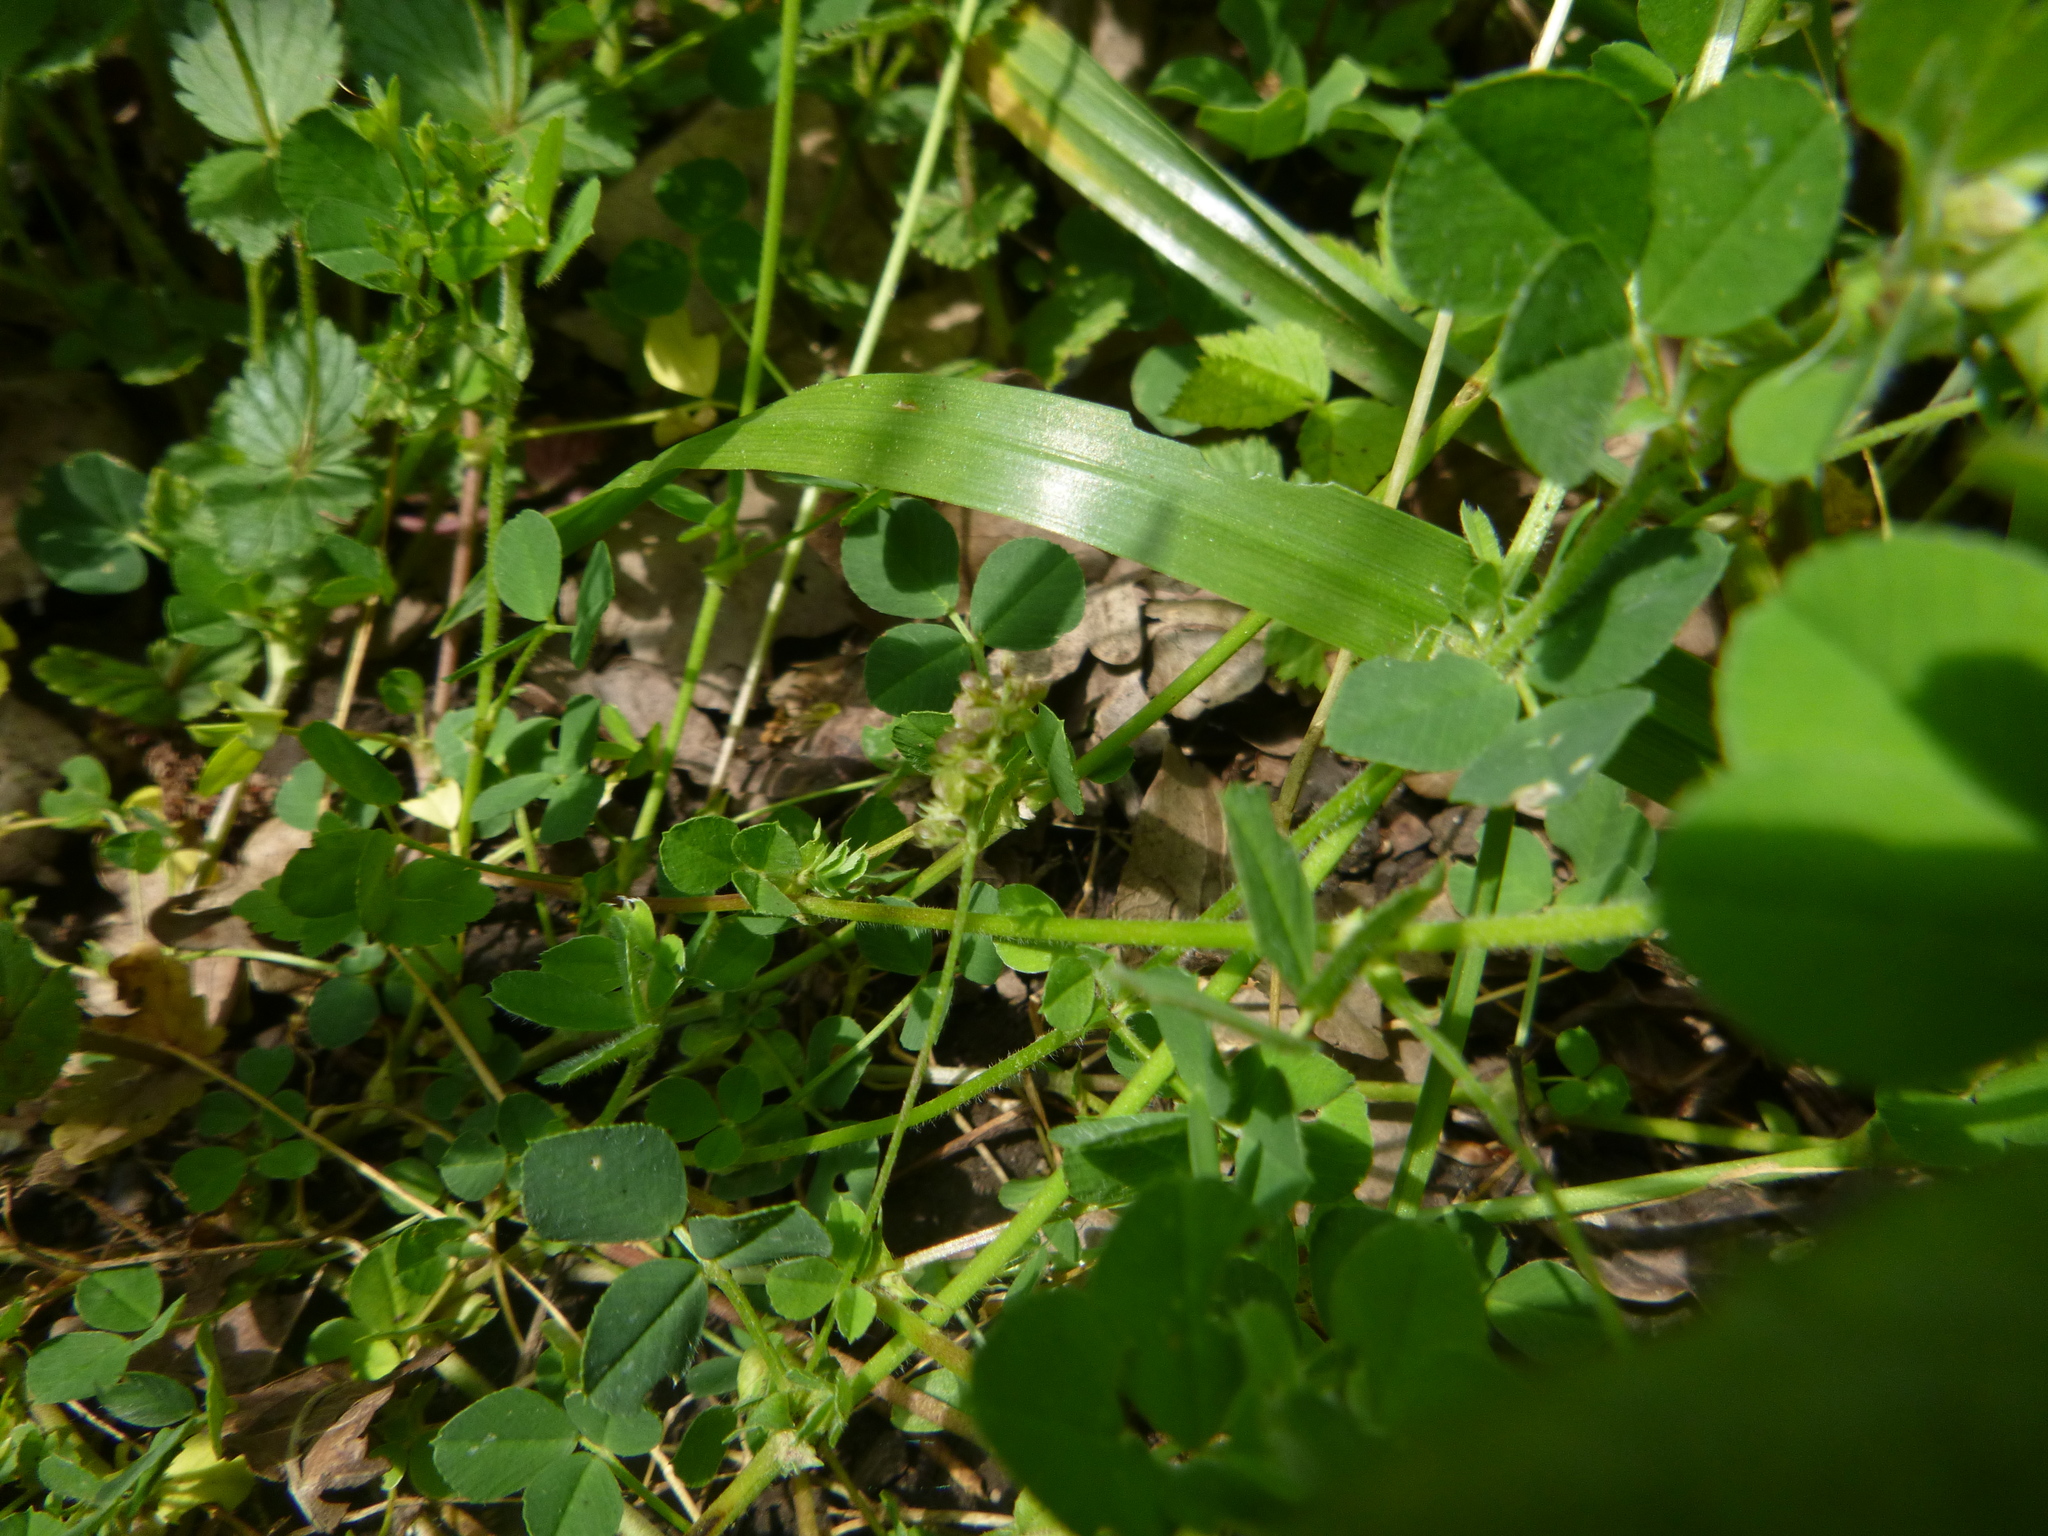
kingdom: Plantae
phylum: Tracheophyta
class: Magnoliopsida
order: Fabales
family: Fabaceae
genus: Medicago
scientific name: Medicago lupulina
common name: Black medick
